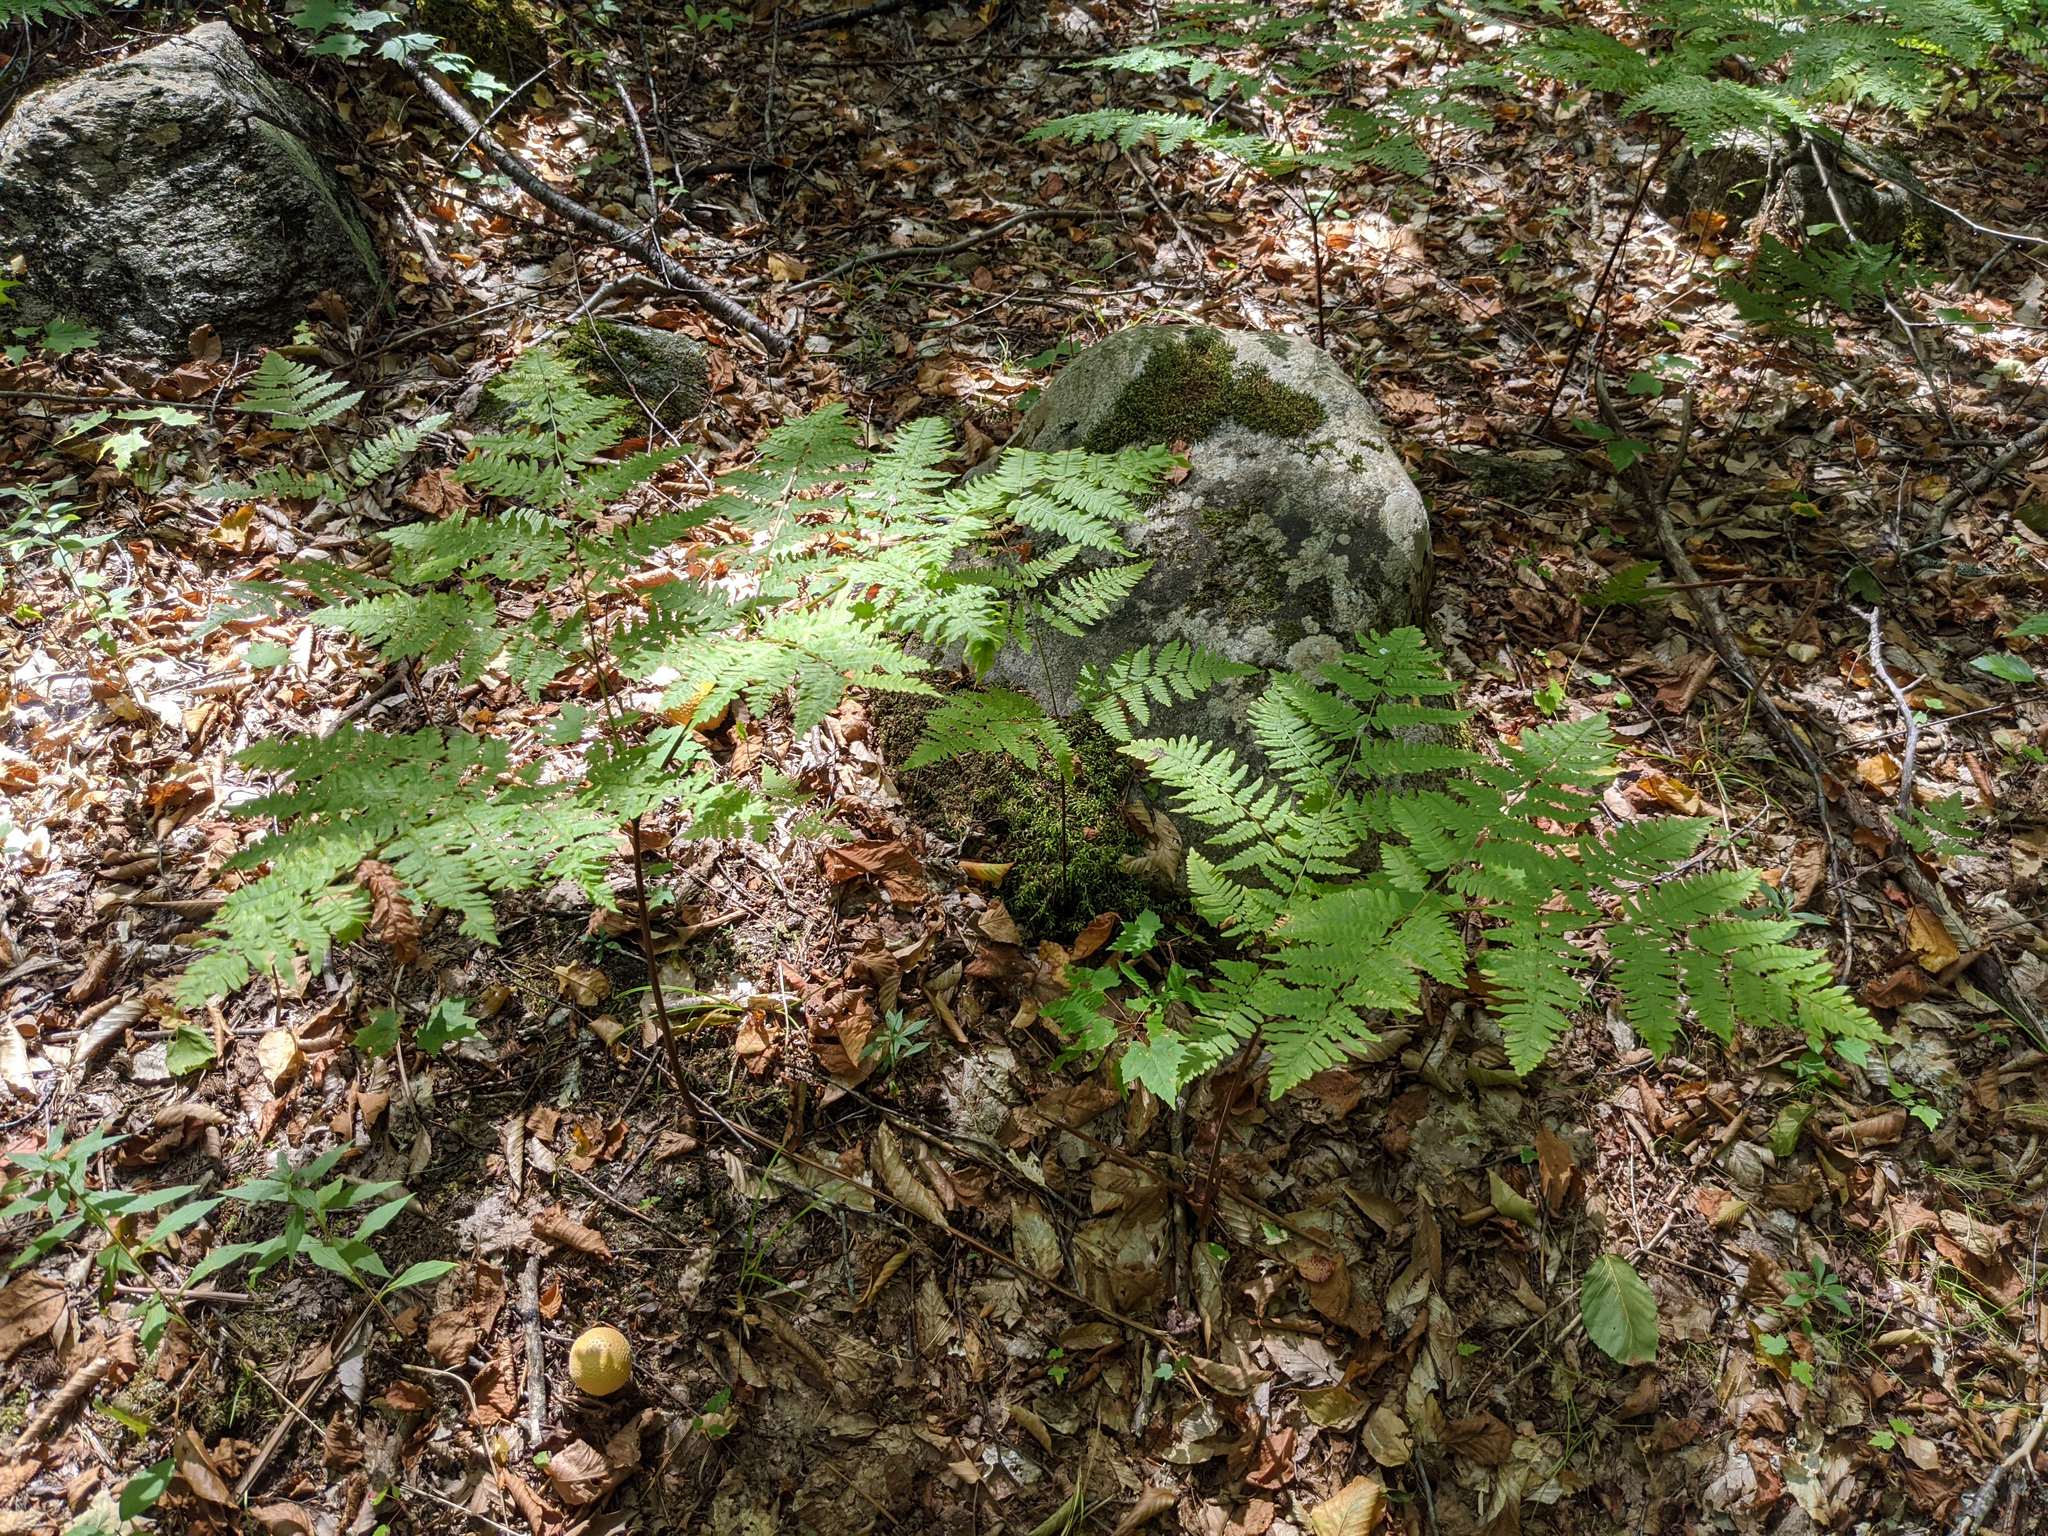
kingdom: Plantae
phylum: Tracheophyta
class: Polypodiopsida
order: Polypodiales
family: Dennstaedtiaceae
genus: Pteridium
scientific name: Pteridium aquilinum
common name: Bracken
